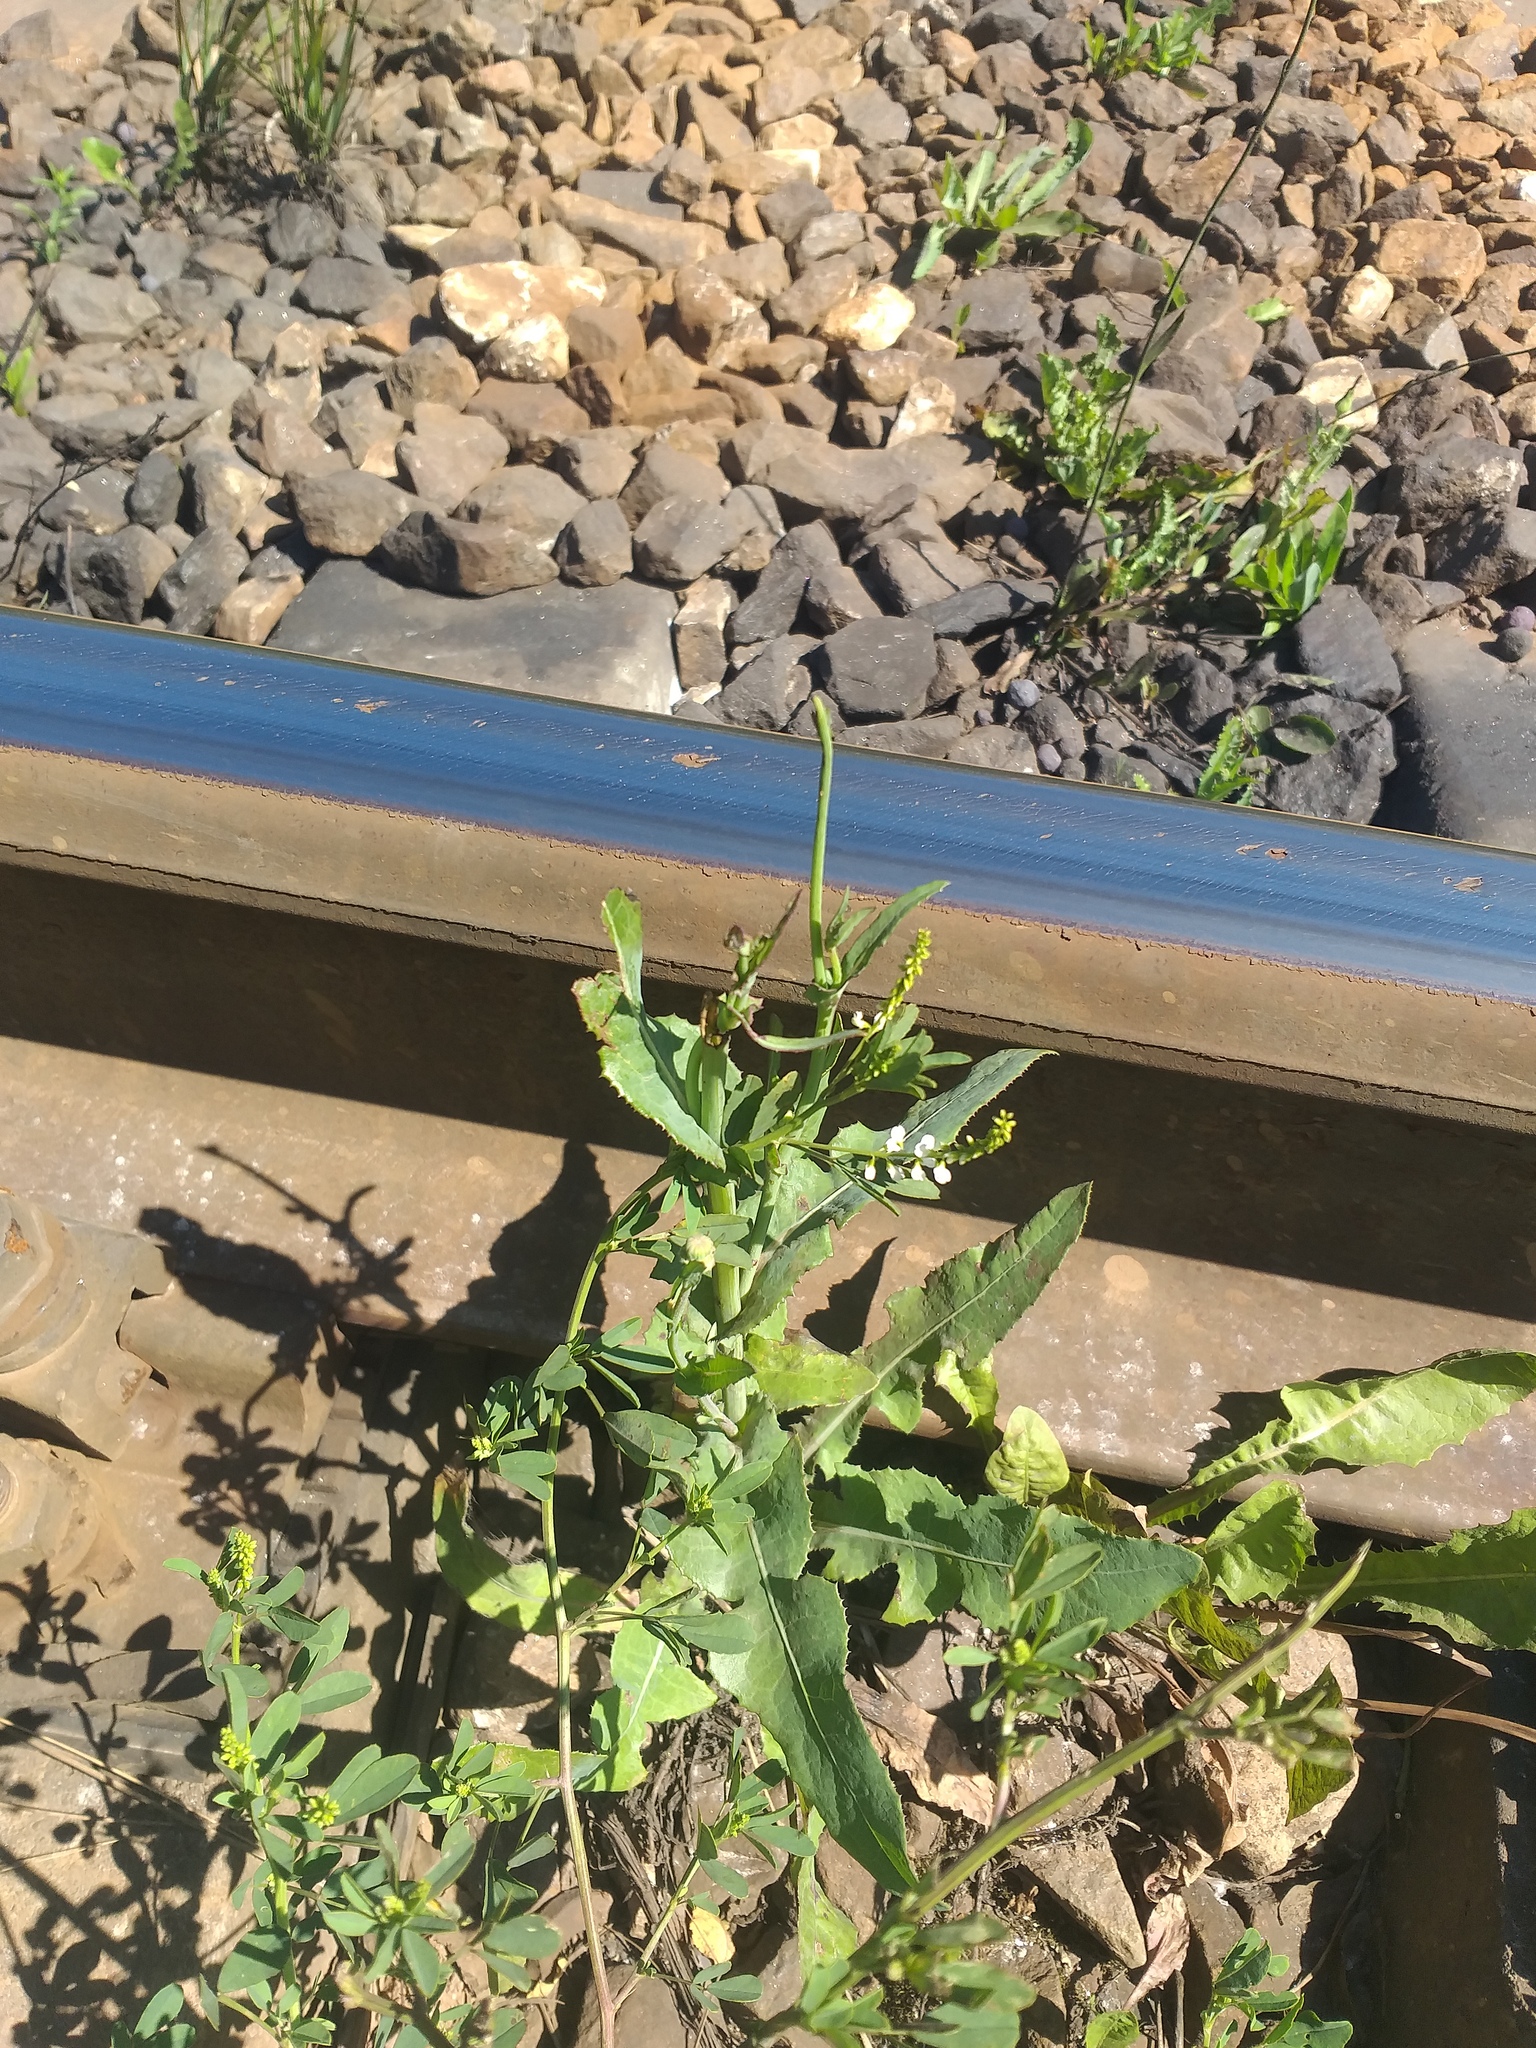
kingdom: Plantae
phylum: Tracheophyta
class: Magnoliopsida
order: Asterales
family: Asteraceae
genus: Sonchus
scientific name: Sonchus arvensis
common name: Perennial sow-thistle
